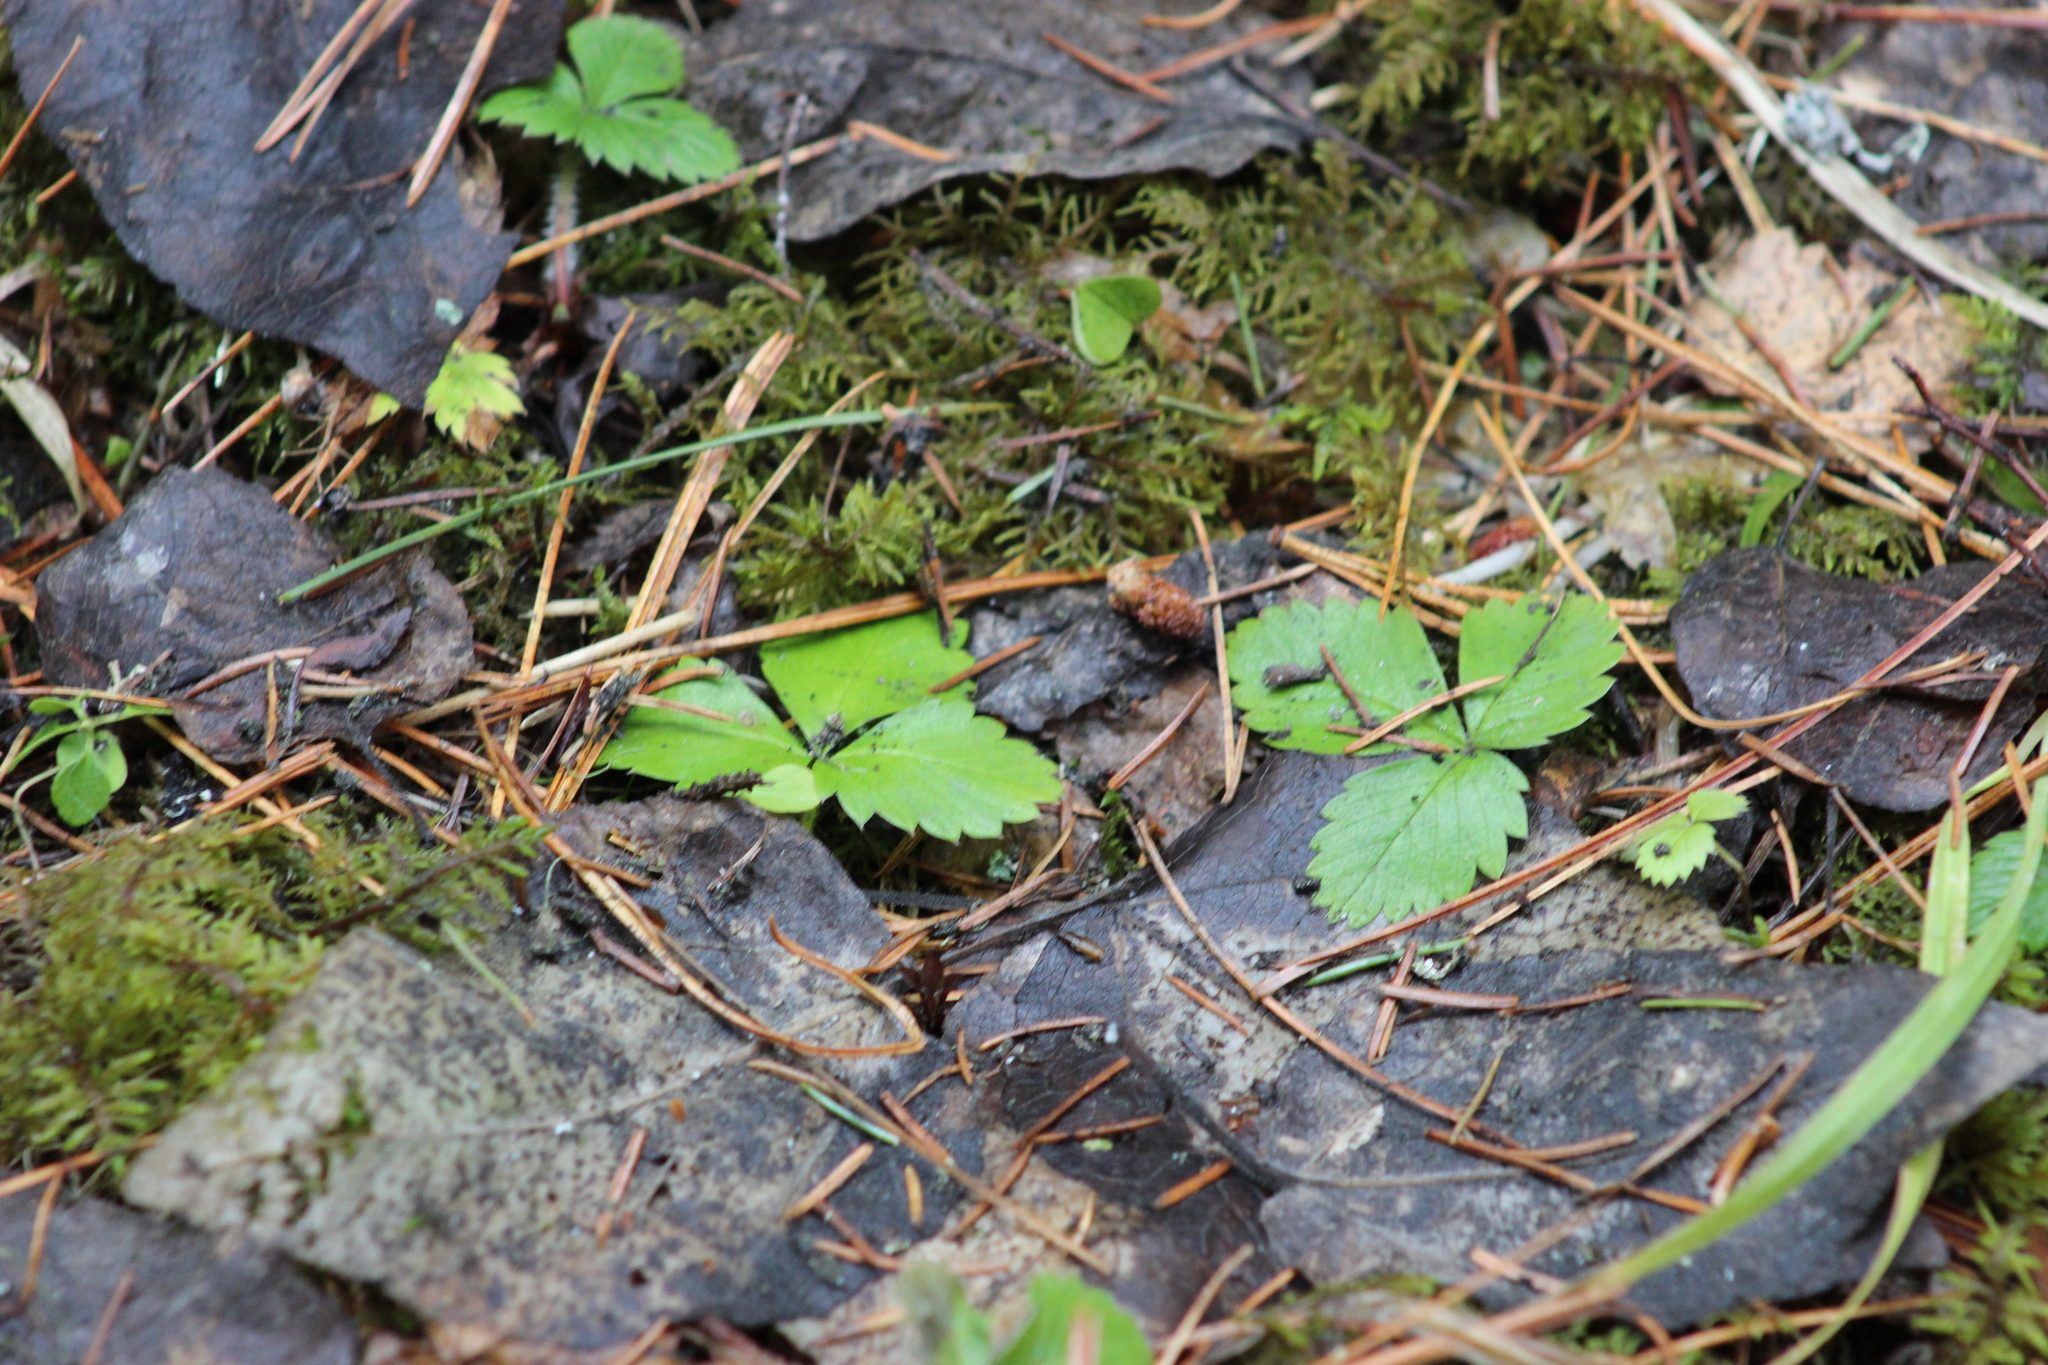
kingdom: Plantae
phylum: Tracheophyta
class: Magnoliopsida
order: Rosales
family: Rosaceae
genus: Fragaria
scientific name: Fragaria vesca
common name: Wild strawberry
